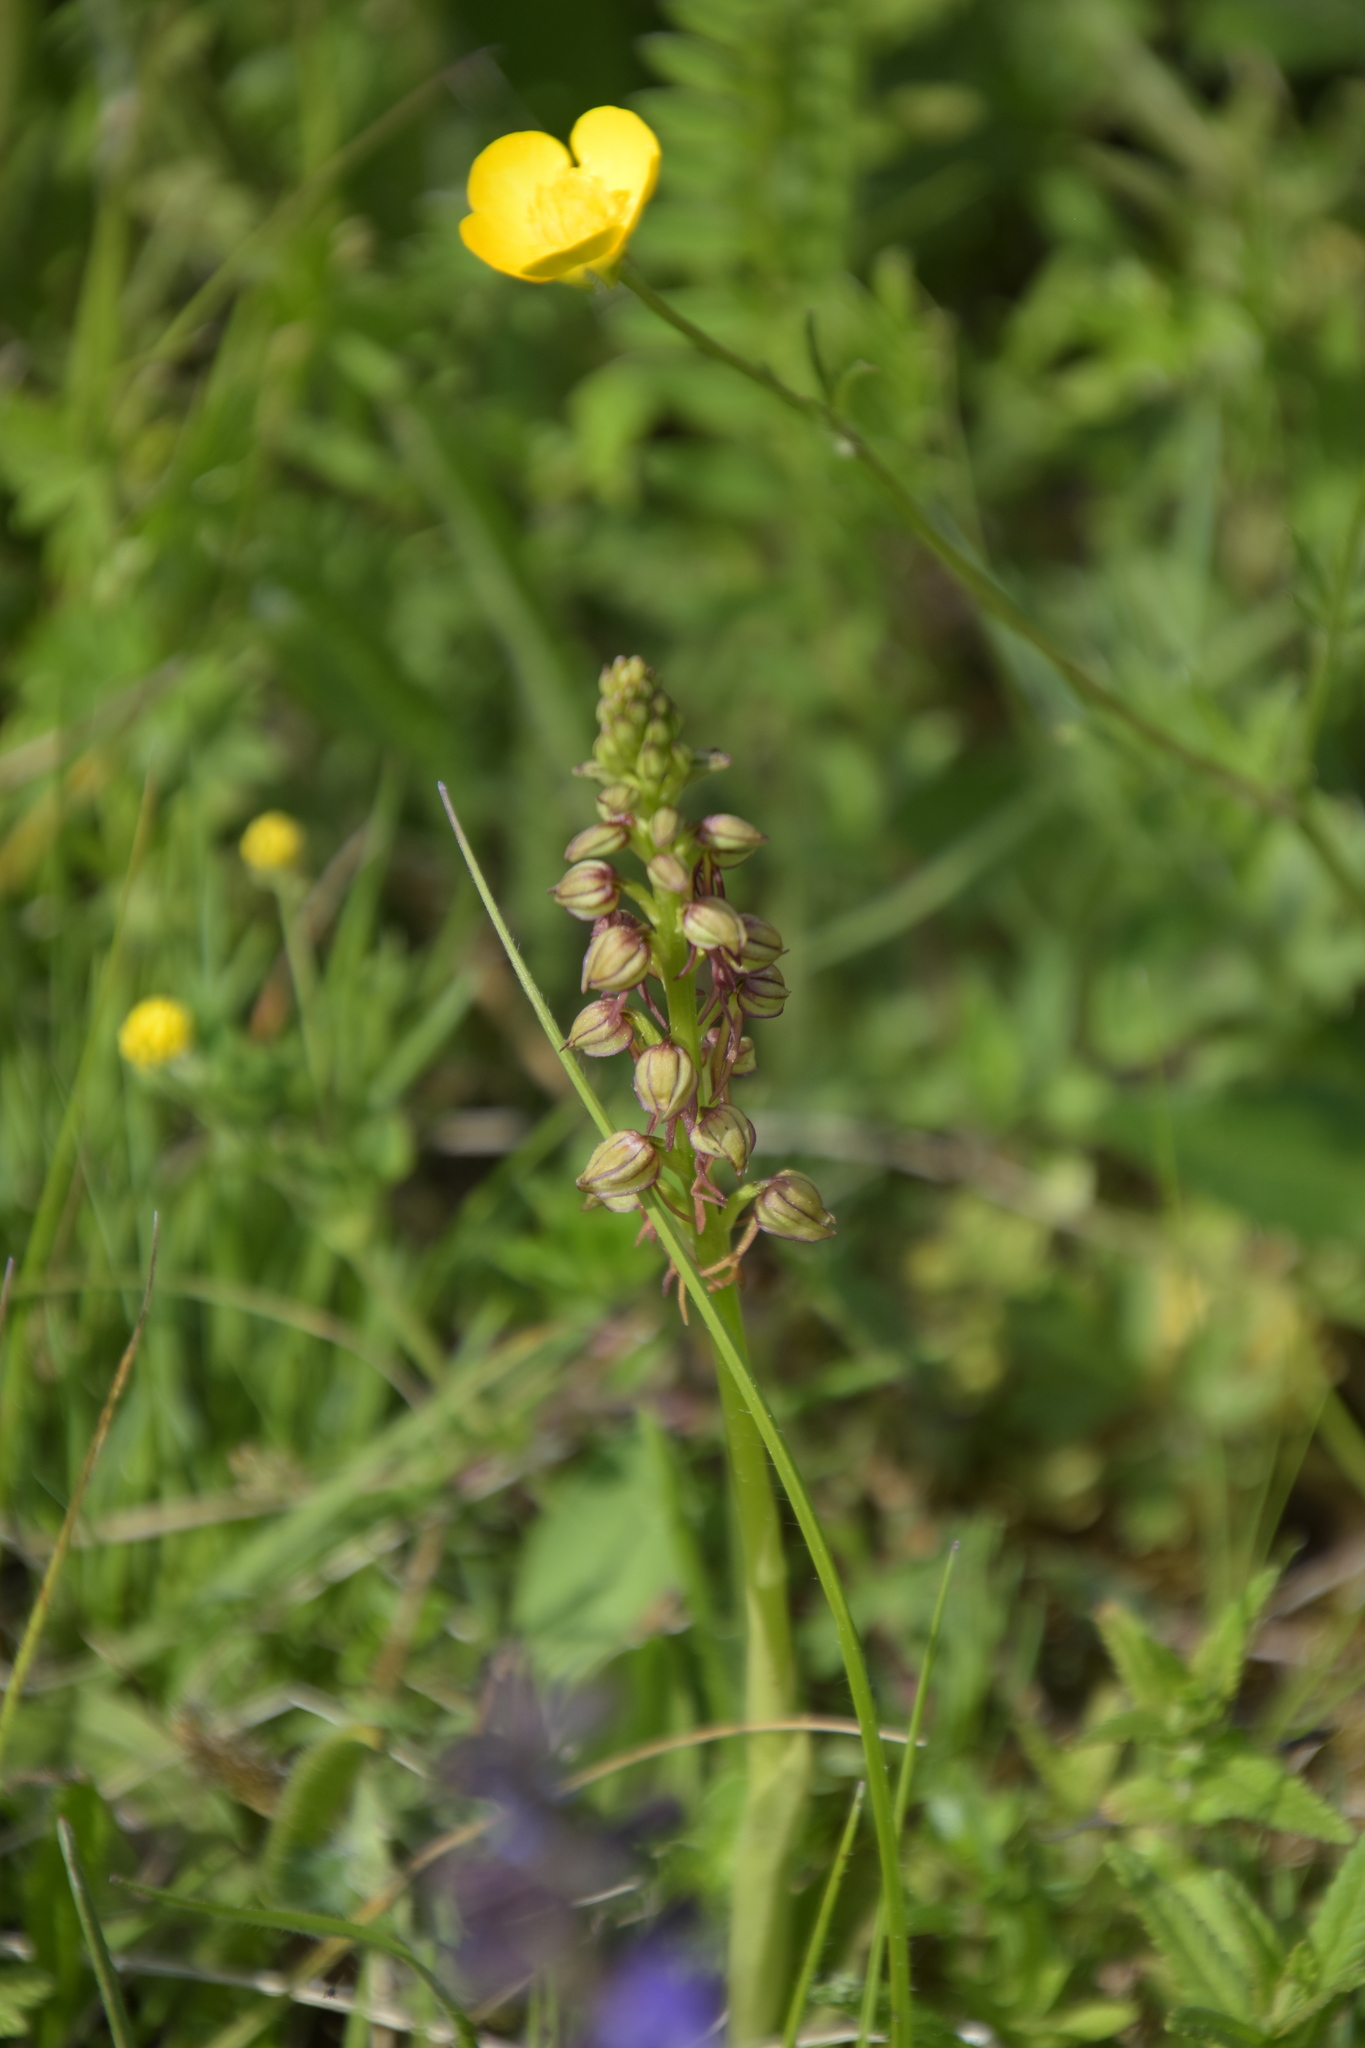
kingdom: Plantae
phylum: Tracheophyta
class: Liliopsida
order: Asparagales
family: Orchidaceae
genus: Orchis
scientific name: Orchis anthropophora
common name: Man orchid
